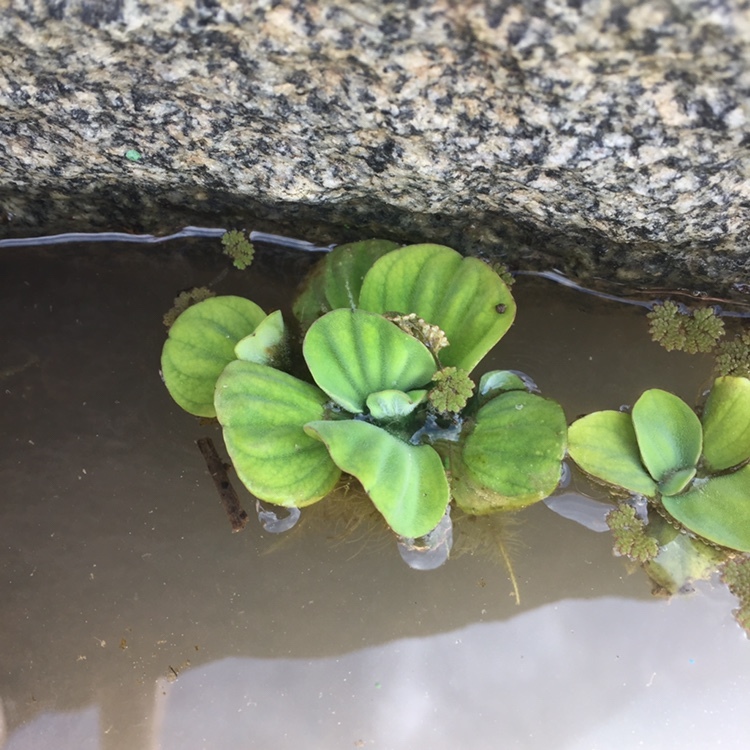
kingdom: Plantae
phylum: Tracheophyta
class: Liliopsida
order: Alismatales
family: Araceae
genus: Pistia
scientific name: Pistia stratiotes
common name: Water lettuce
